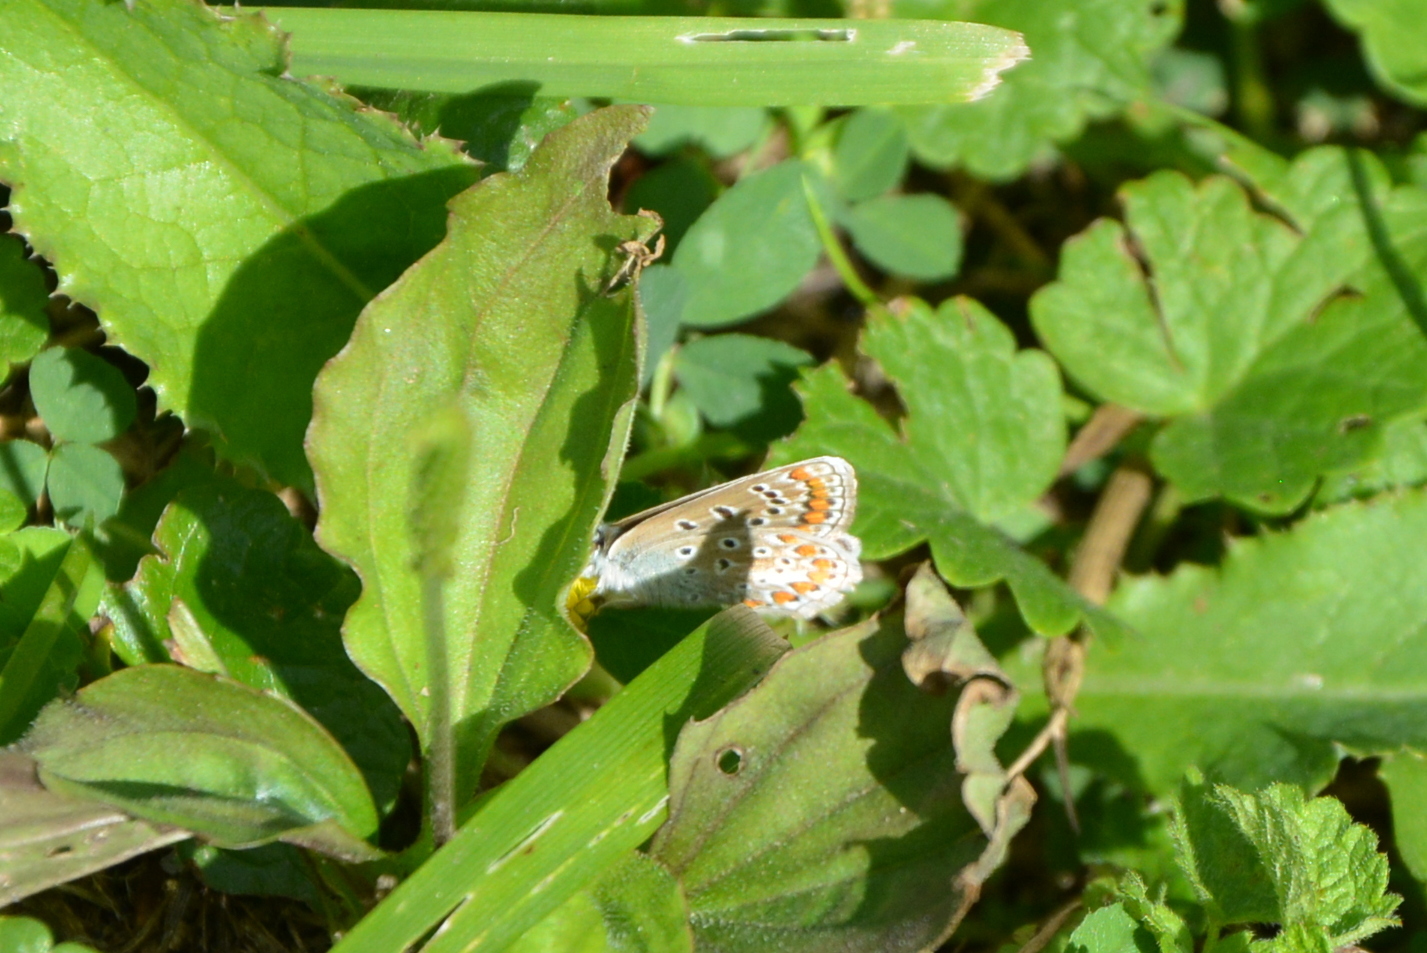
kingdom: Animalia
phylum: Arthropoda
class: Insecta
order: Lepidoptera
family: Lycaenidae
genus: Polyommatus
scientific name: Polyommatus icarus
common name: Common blue
